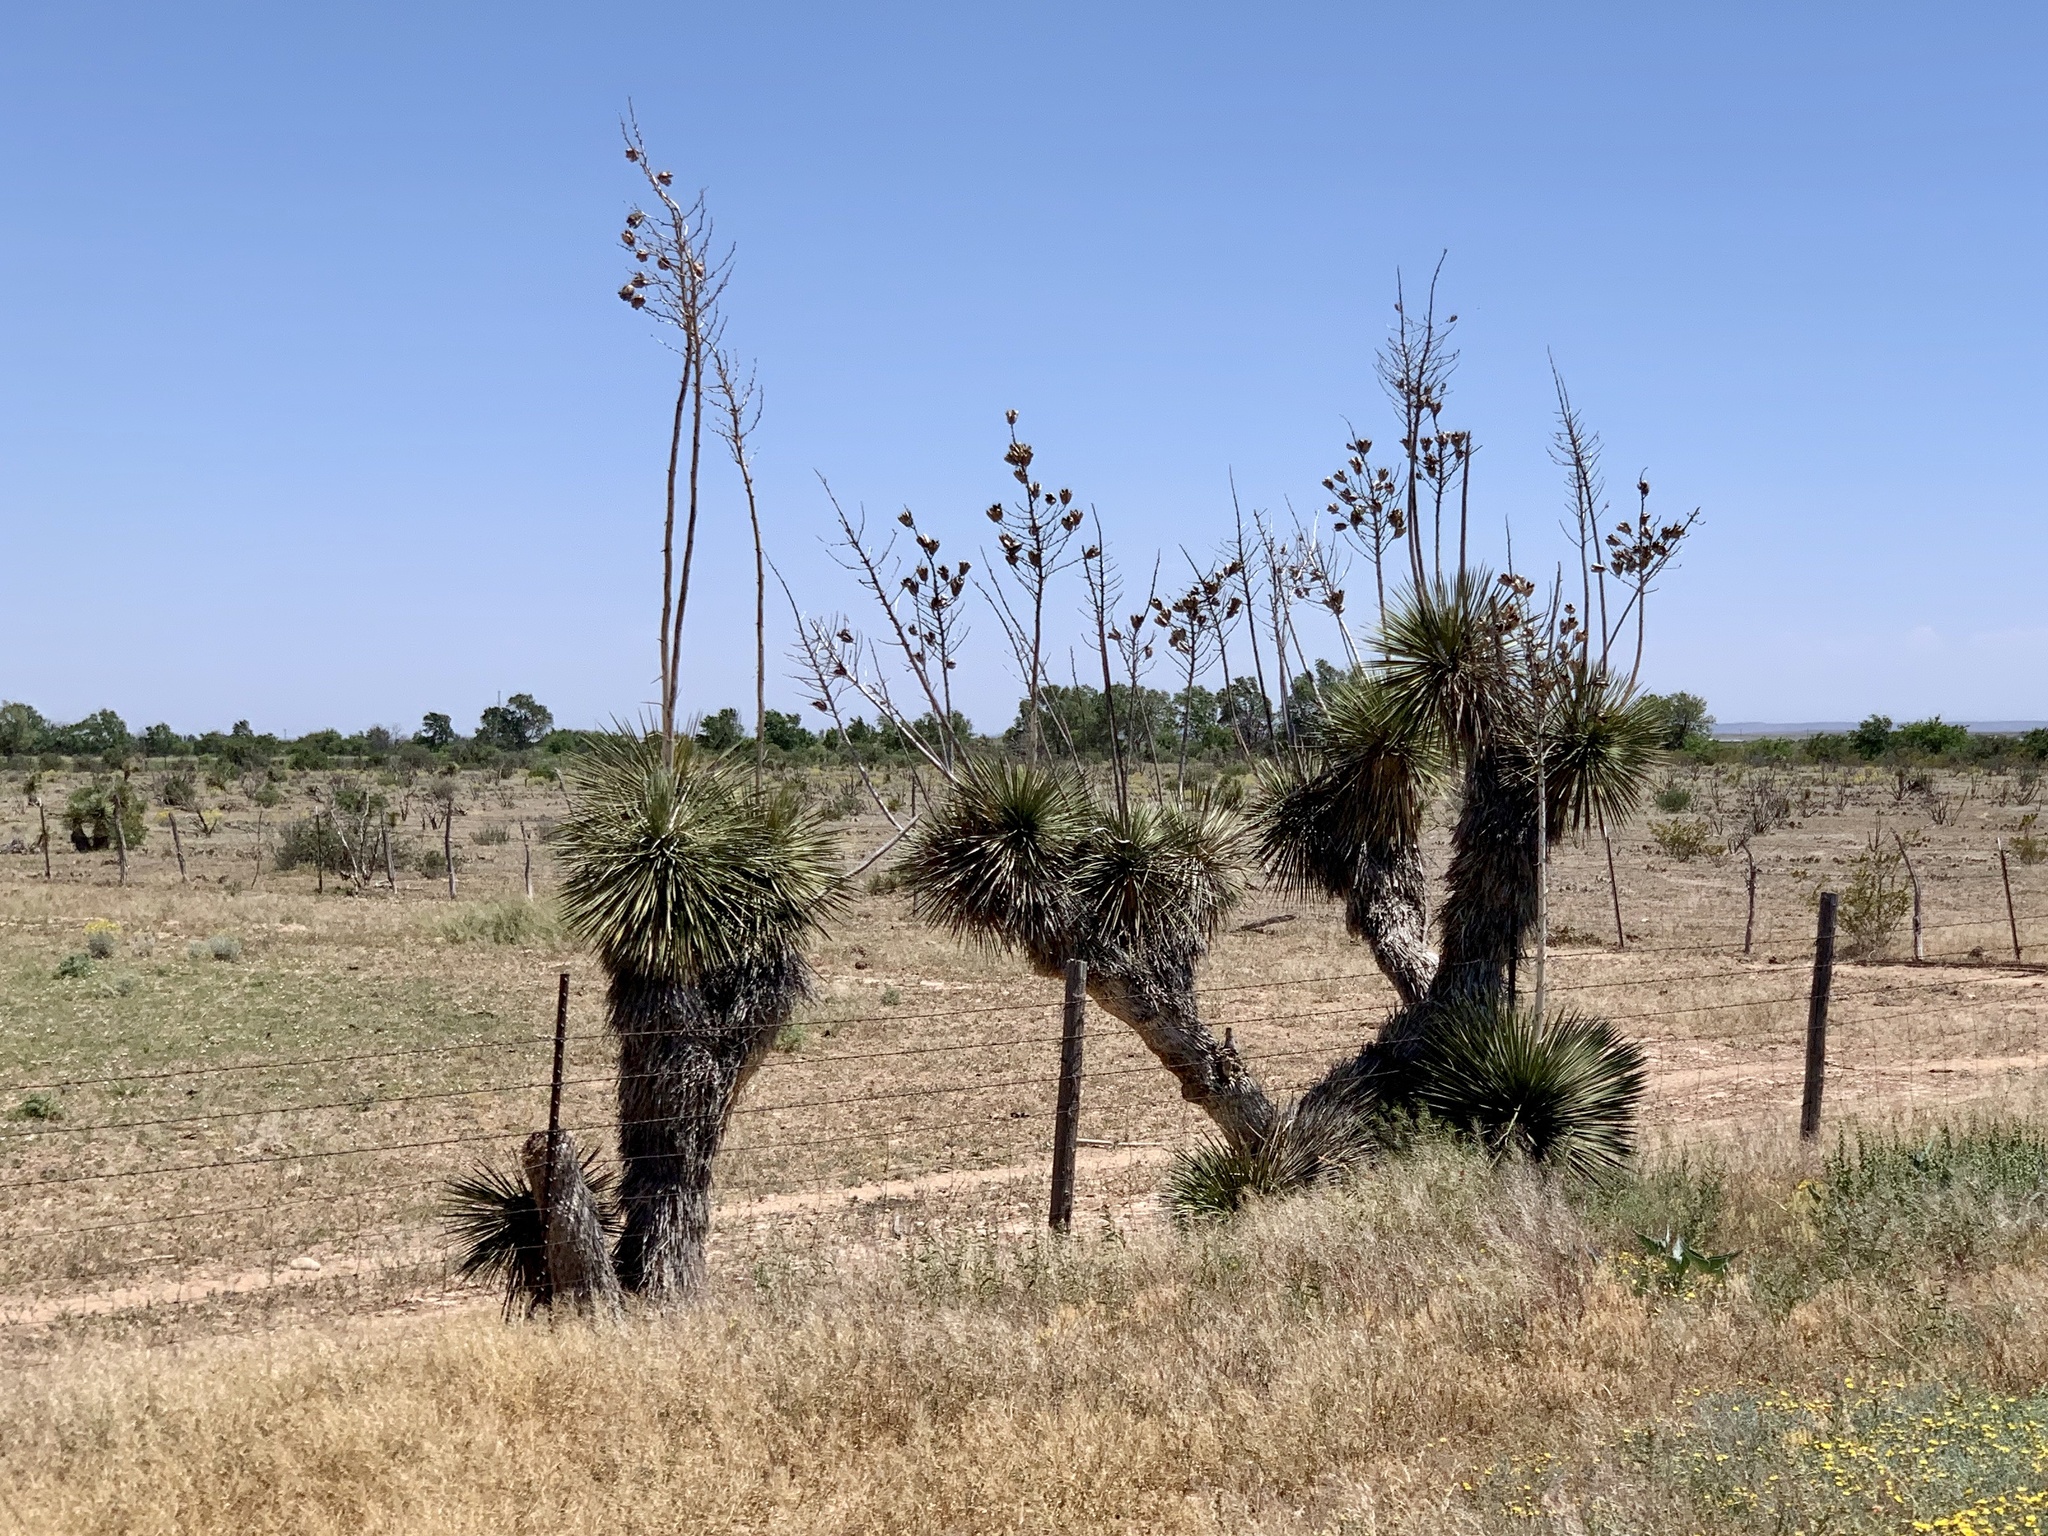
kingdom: Plantae
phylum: Tracheophyta
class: Liliopsida
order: Asparagales
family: Asparagaceae
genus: Yucca
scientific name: Yucca elata
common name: Palmella
